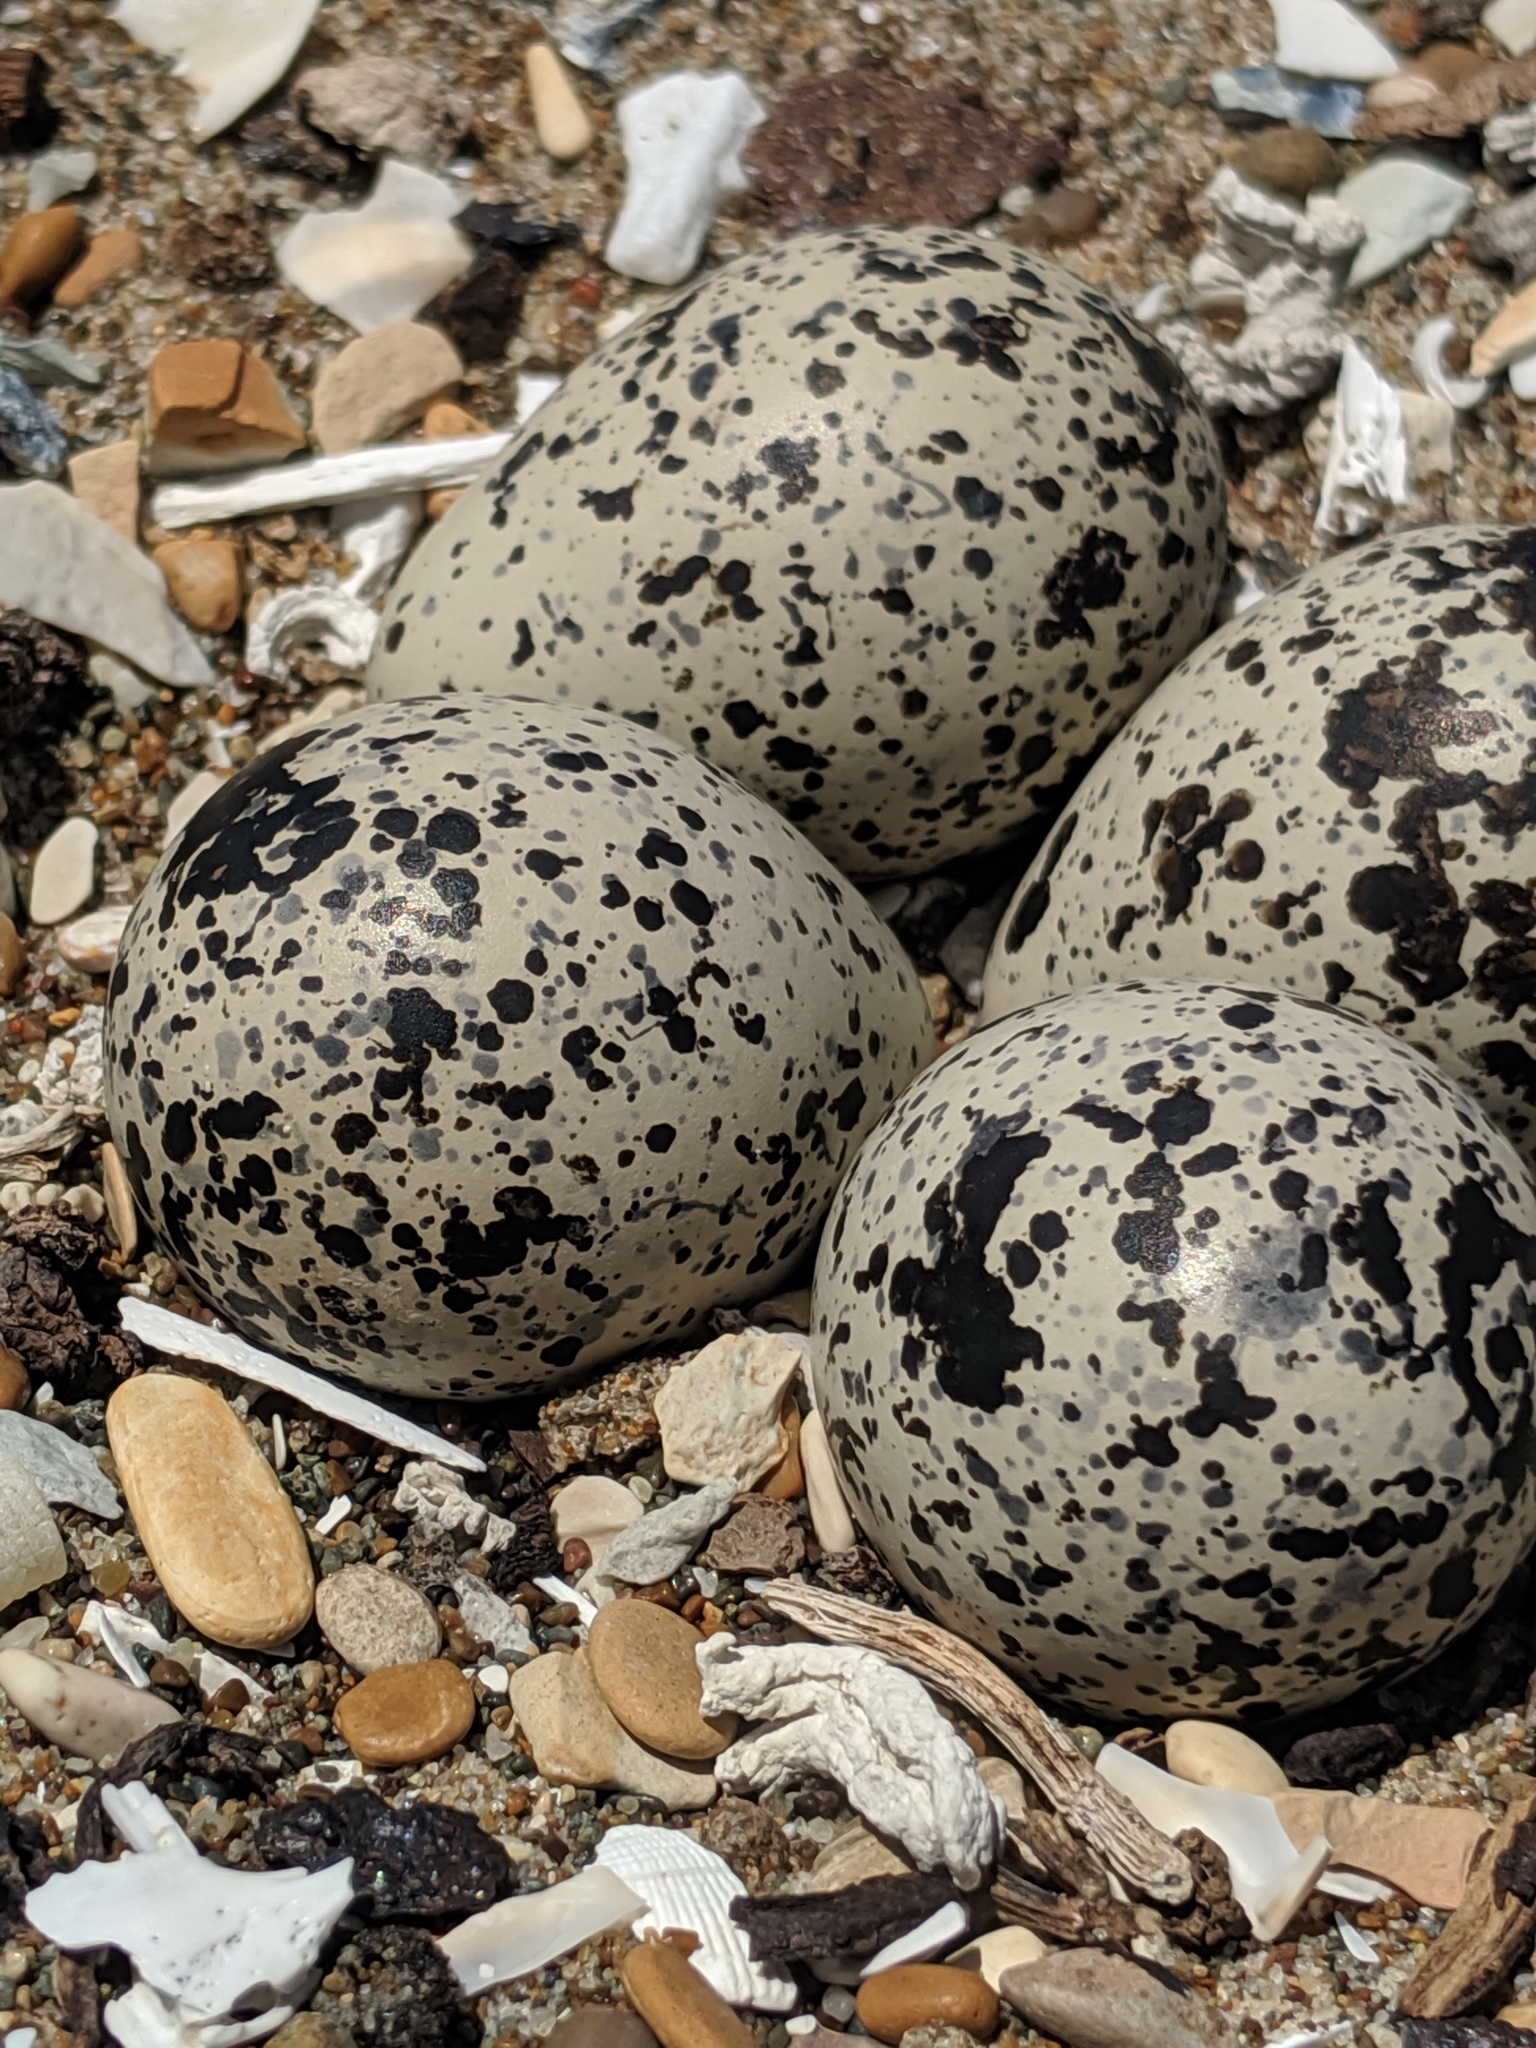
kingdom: Animalia
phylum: Chordata
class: Aves
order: Charadriiformes
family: Charadriidae
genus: Charadrius
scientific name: Charadrius vociferus
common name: Killdeer
